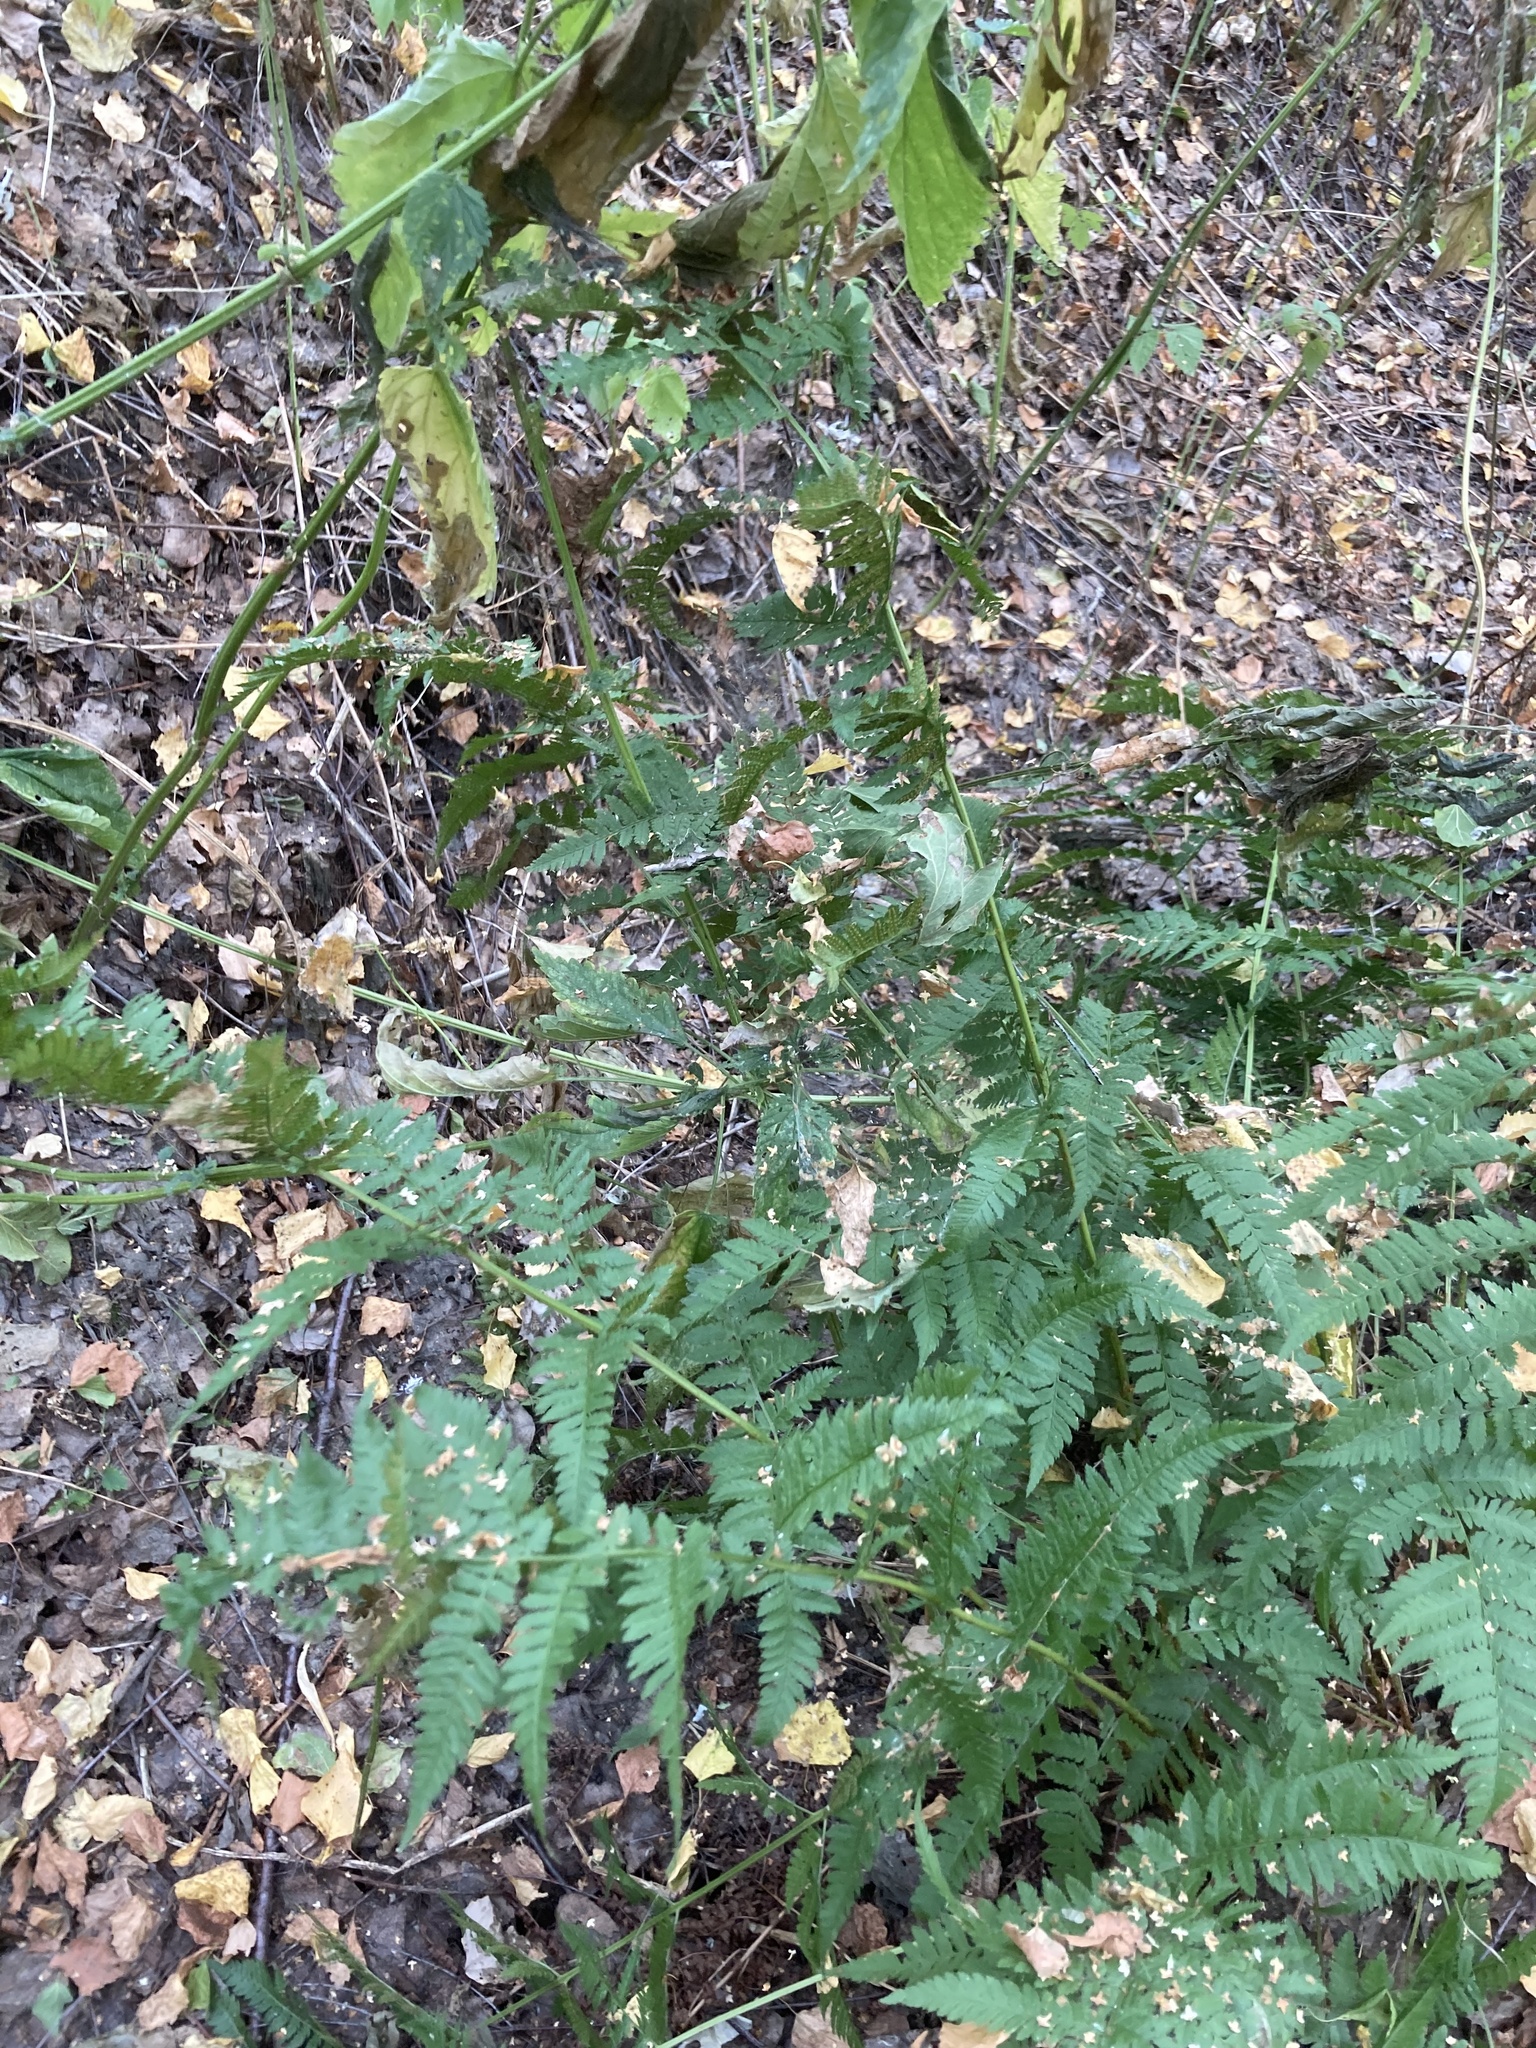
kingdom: Plantae
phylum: Tracheophyta
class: Polypodiopsida
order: Polypodiales
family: Dryopteridaceae
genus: Dryopteris
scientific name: Dryopteris carthusiana
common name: Narrow buckler-fern
